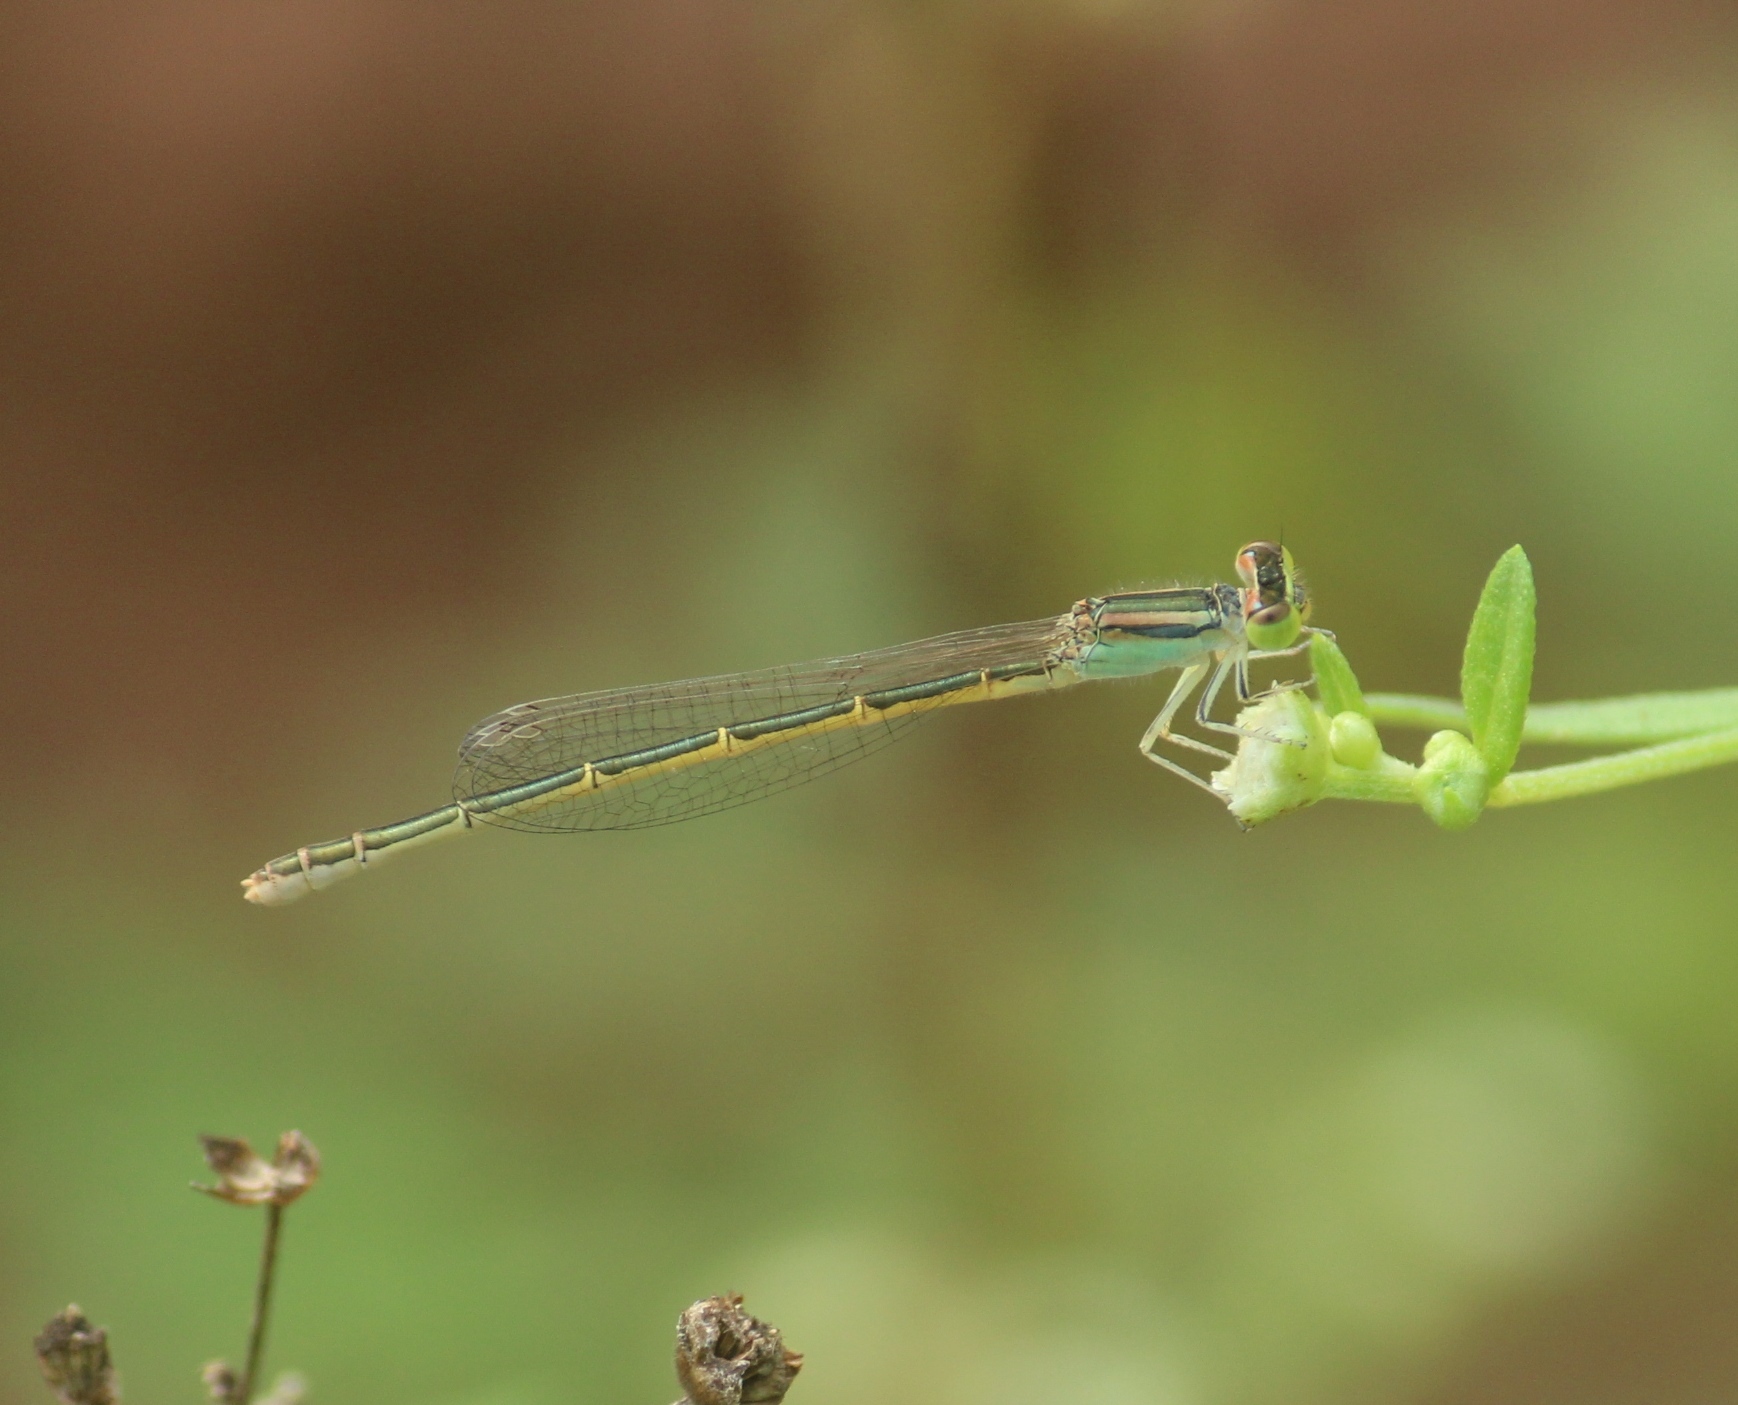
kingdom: Animalia
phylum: Arthropoda
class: Insecta
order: Odonata
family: Coenagrionidae
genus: Ischnura
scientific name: Ischnura rubilio
